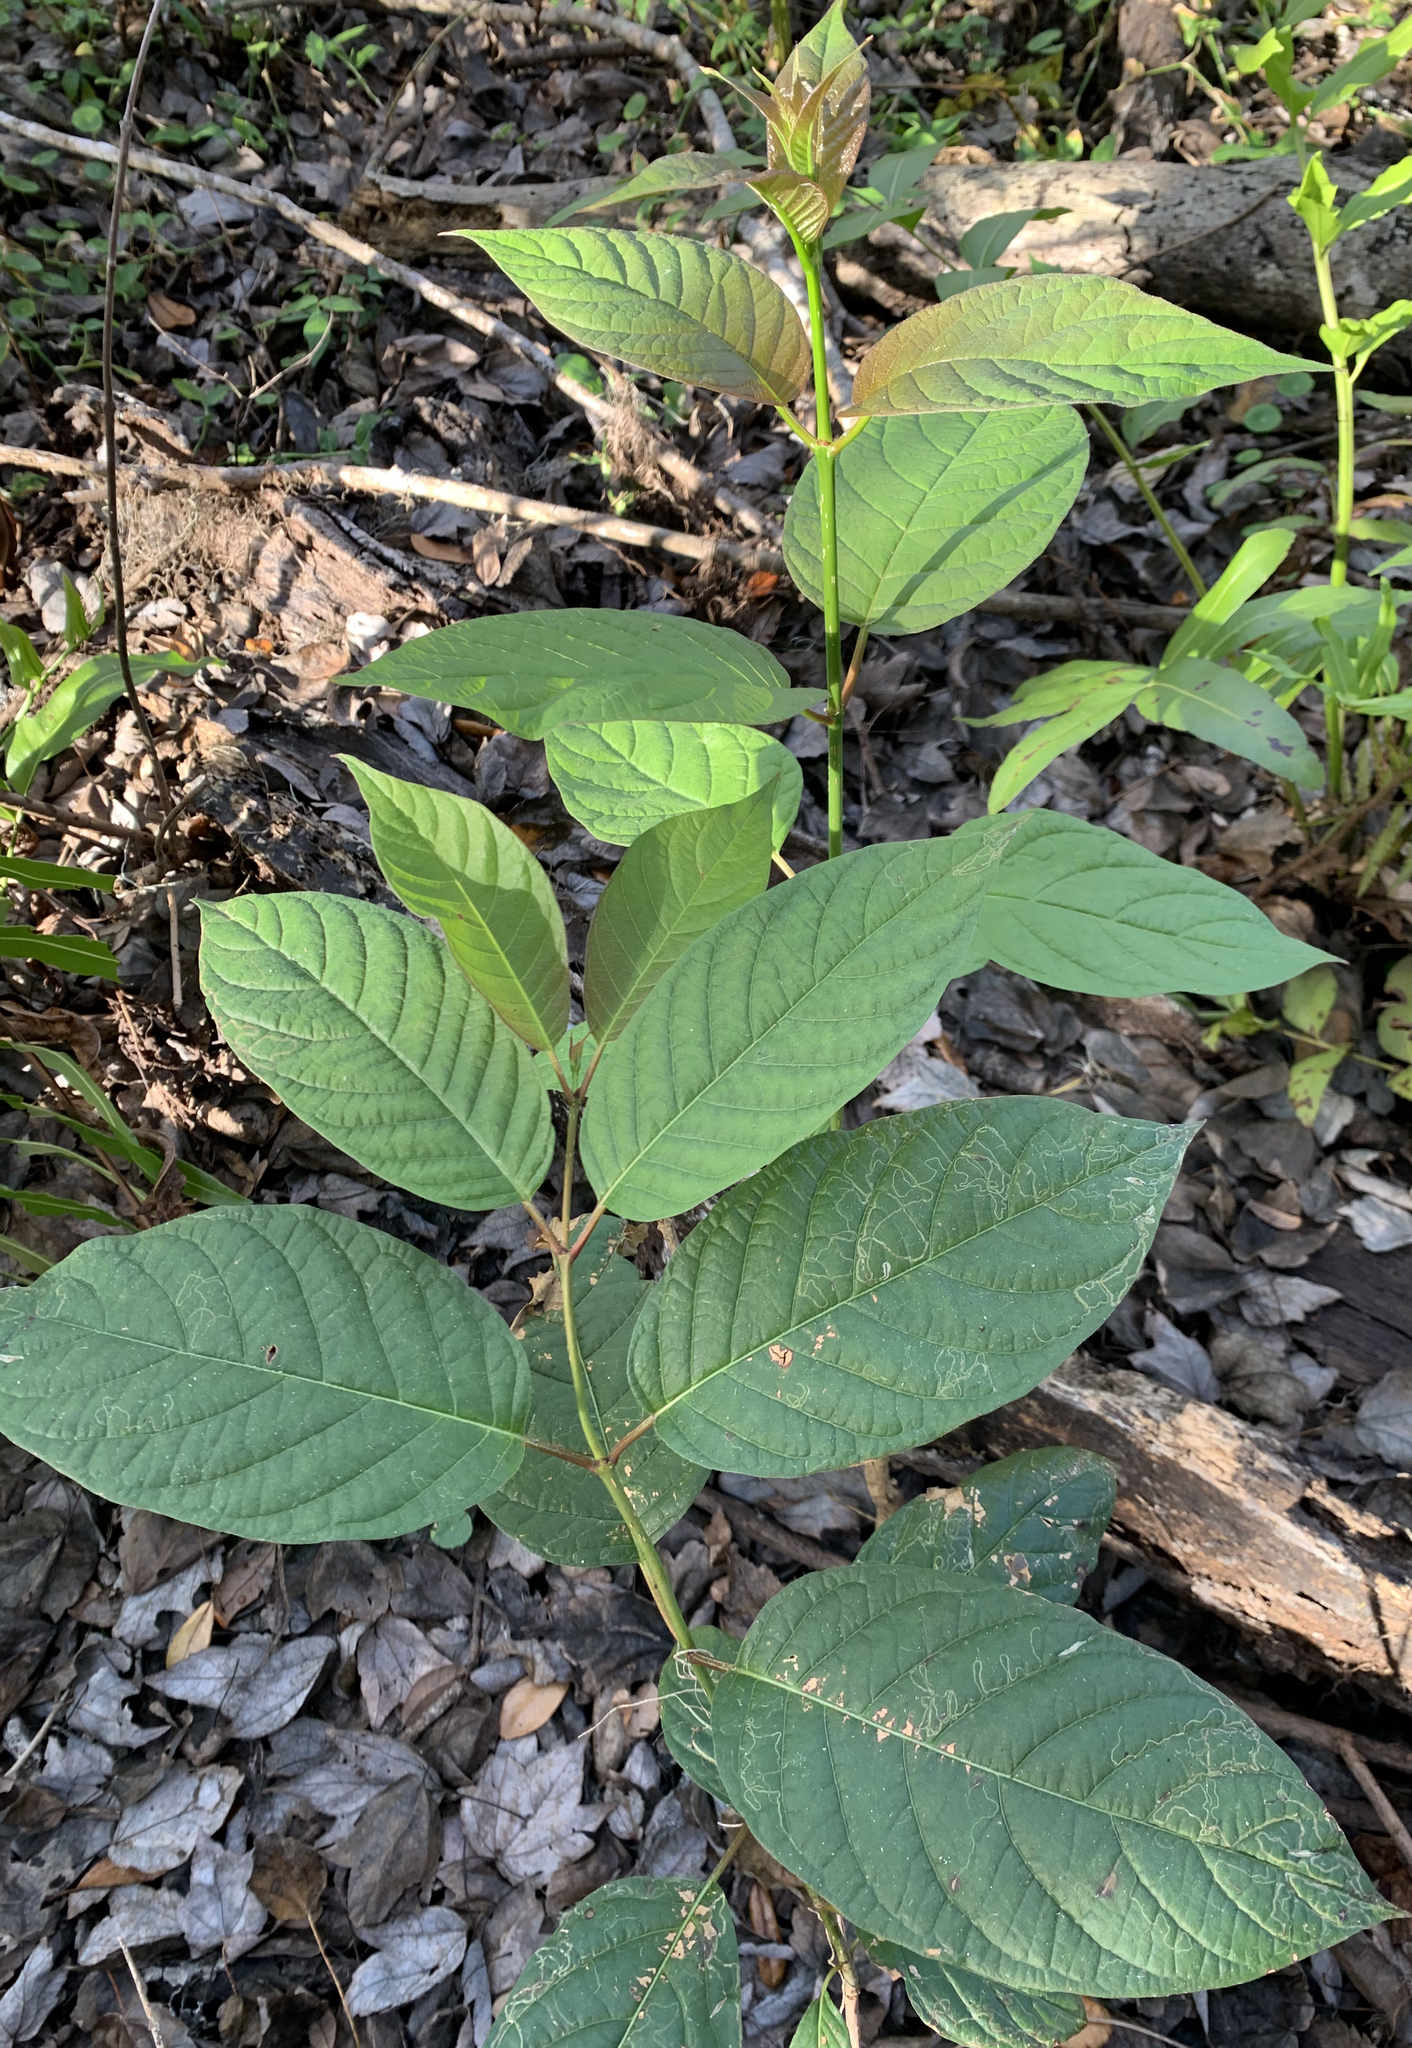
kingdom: Plantae
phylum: Tracheophyta
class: Magnoliopsida
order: Gentianales
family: Rubiaceae
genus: Cephalanthus
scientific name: Cephalanthus occidentalis
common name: Button-willow
